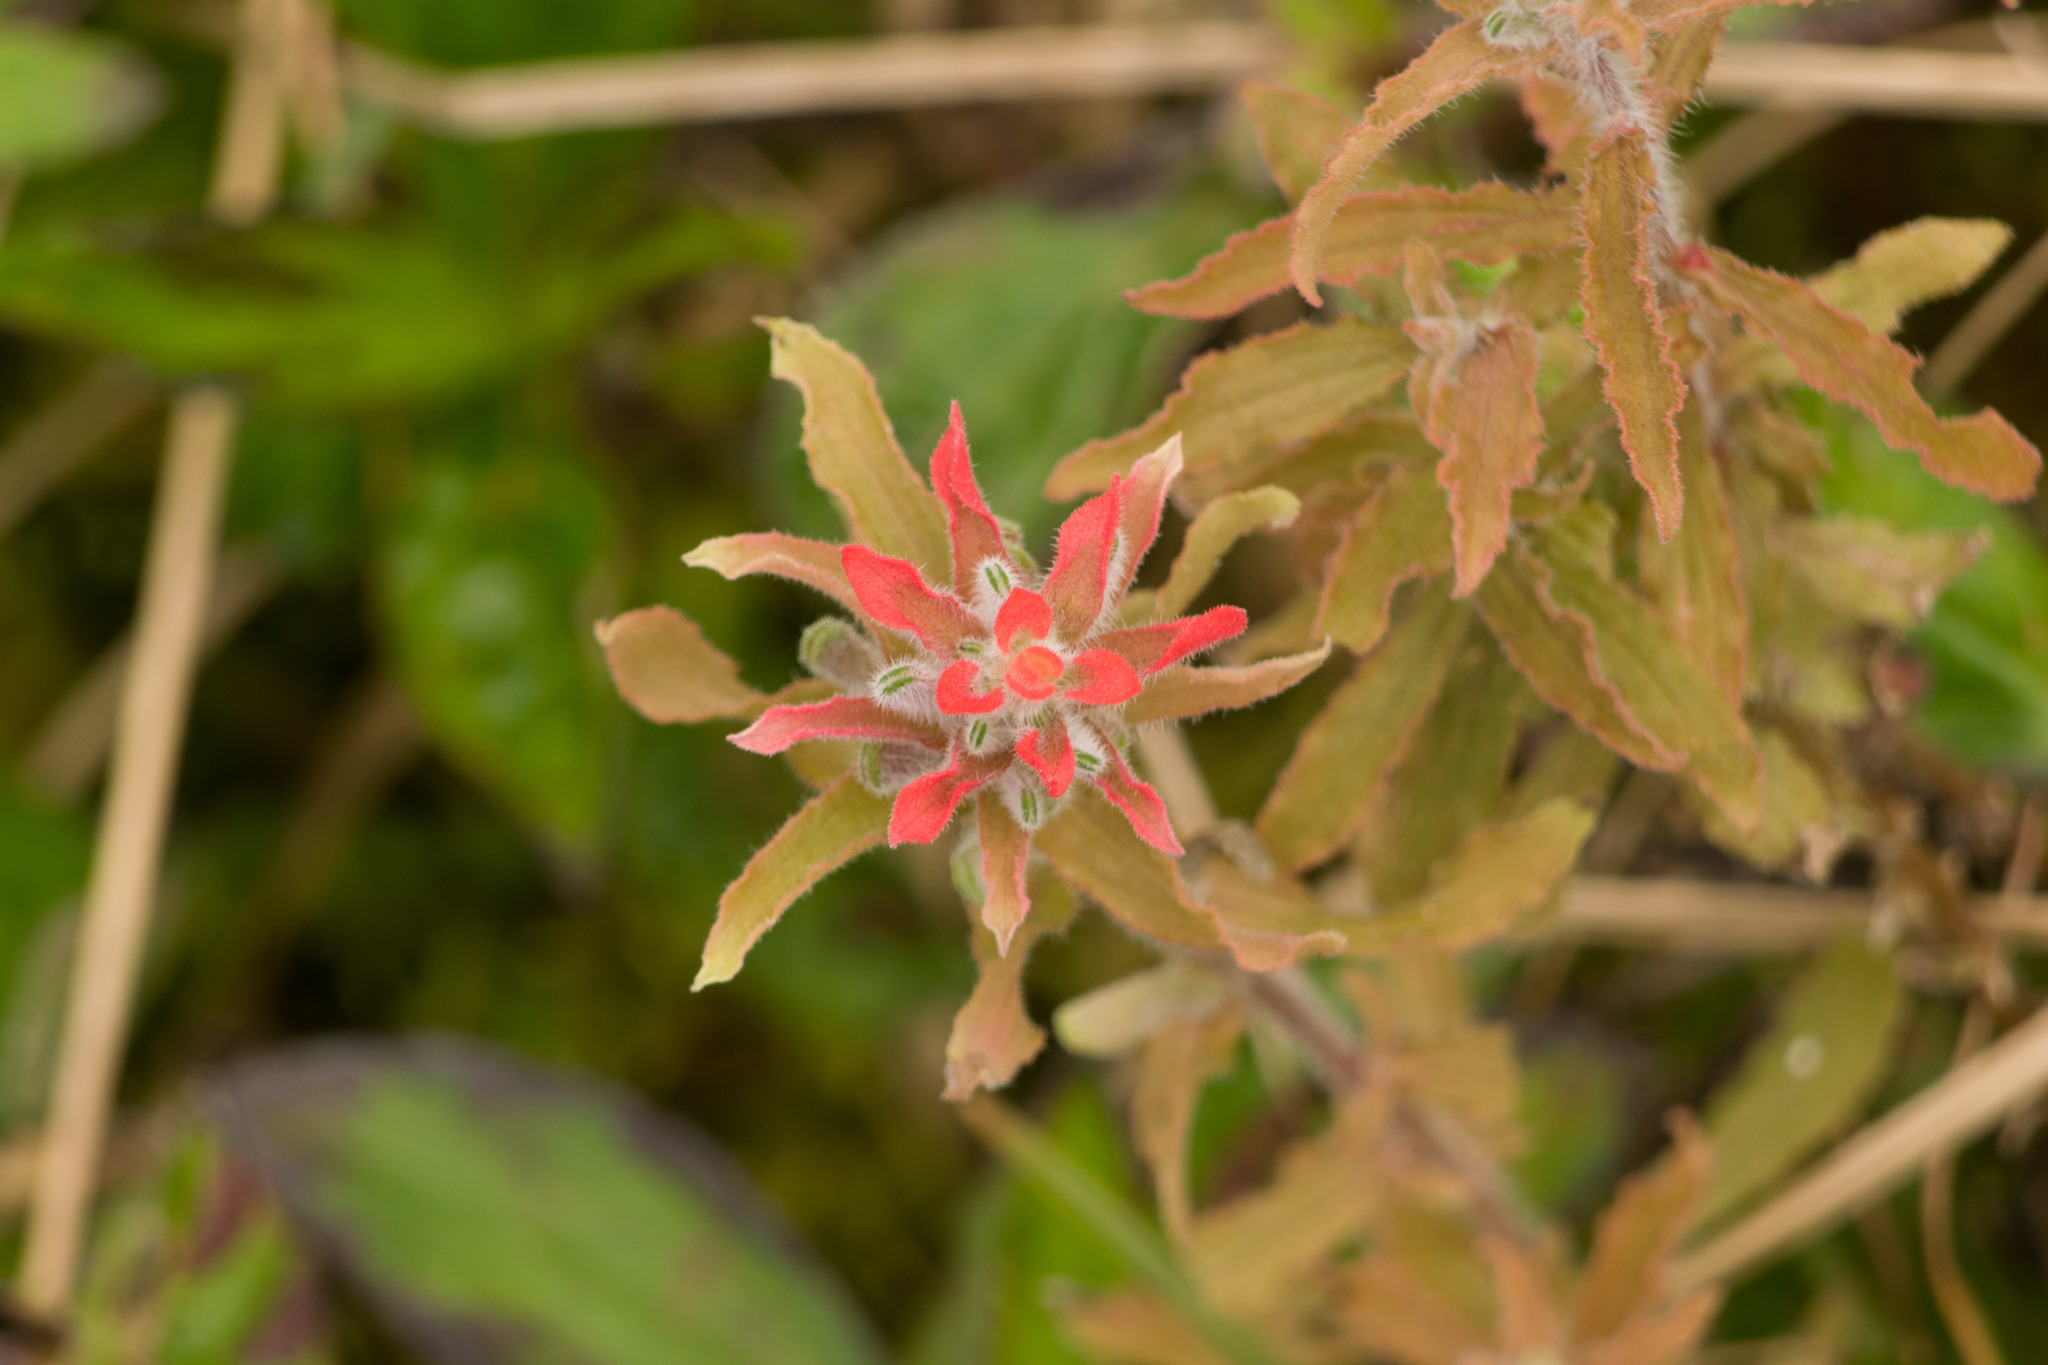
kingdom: Plantae
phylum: Tracheophyta
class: Magnoliopsida
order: Lamiales
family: Orobanchaceae
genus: Castilleja
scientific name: Castilleja arvensis
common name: Indian paintbrush
